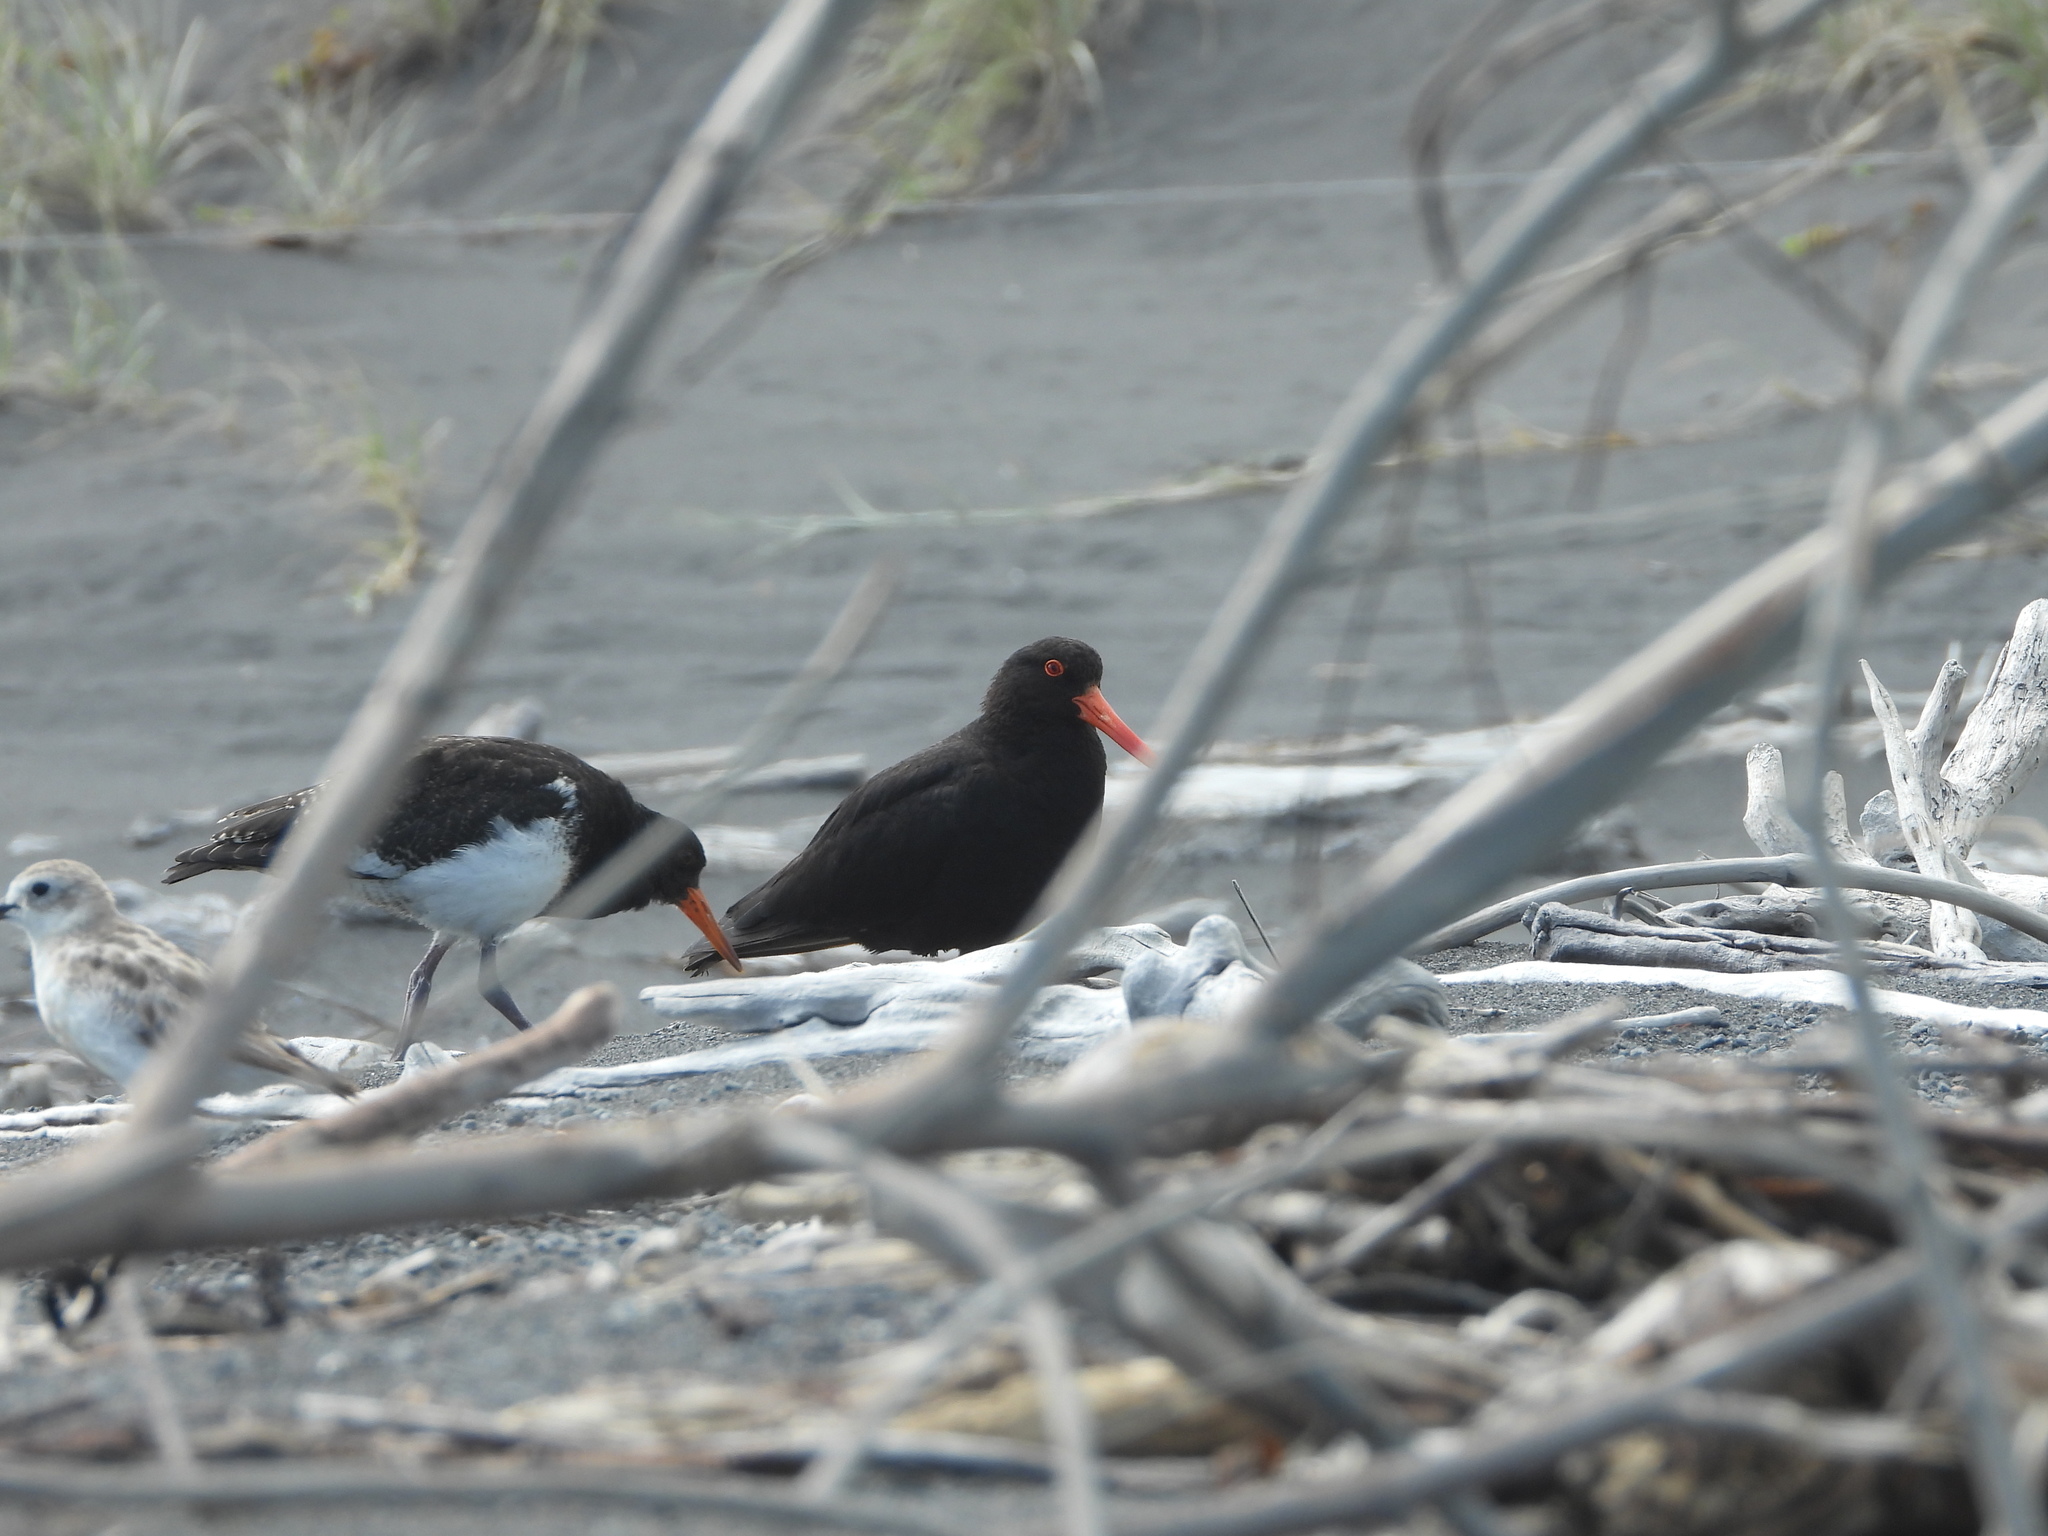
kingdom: Animalia
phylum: Chordata
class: Aves
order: Charadriiformes
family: Haematopodidae
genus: Haematopus
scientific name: Haematopus unicolor
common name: Variable oystercatcher
